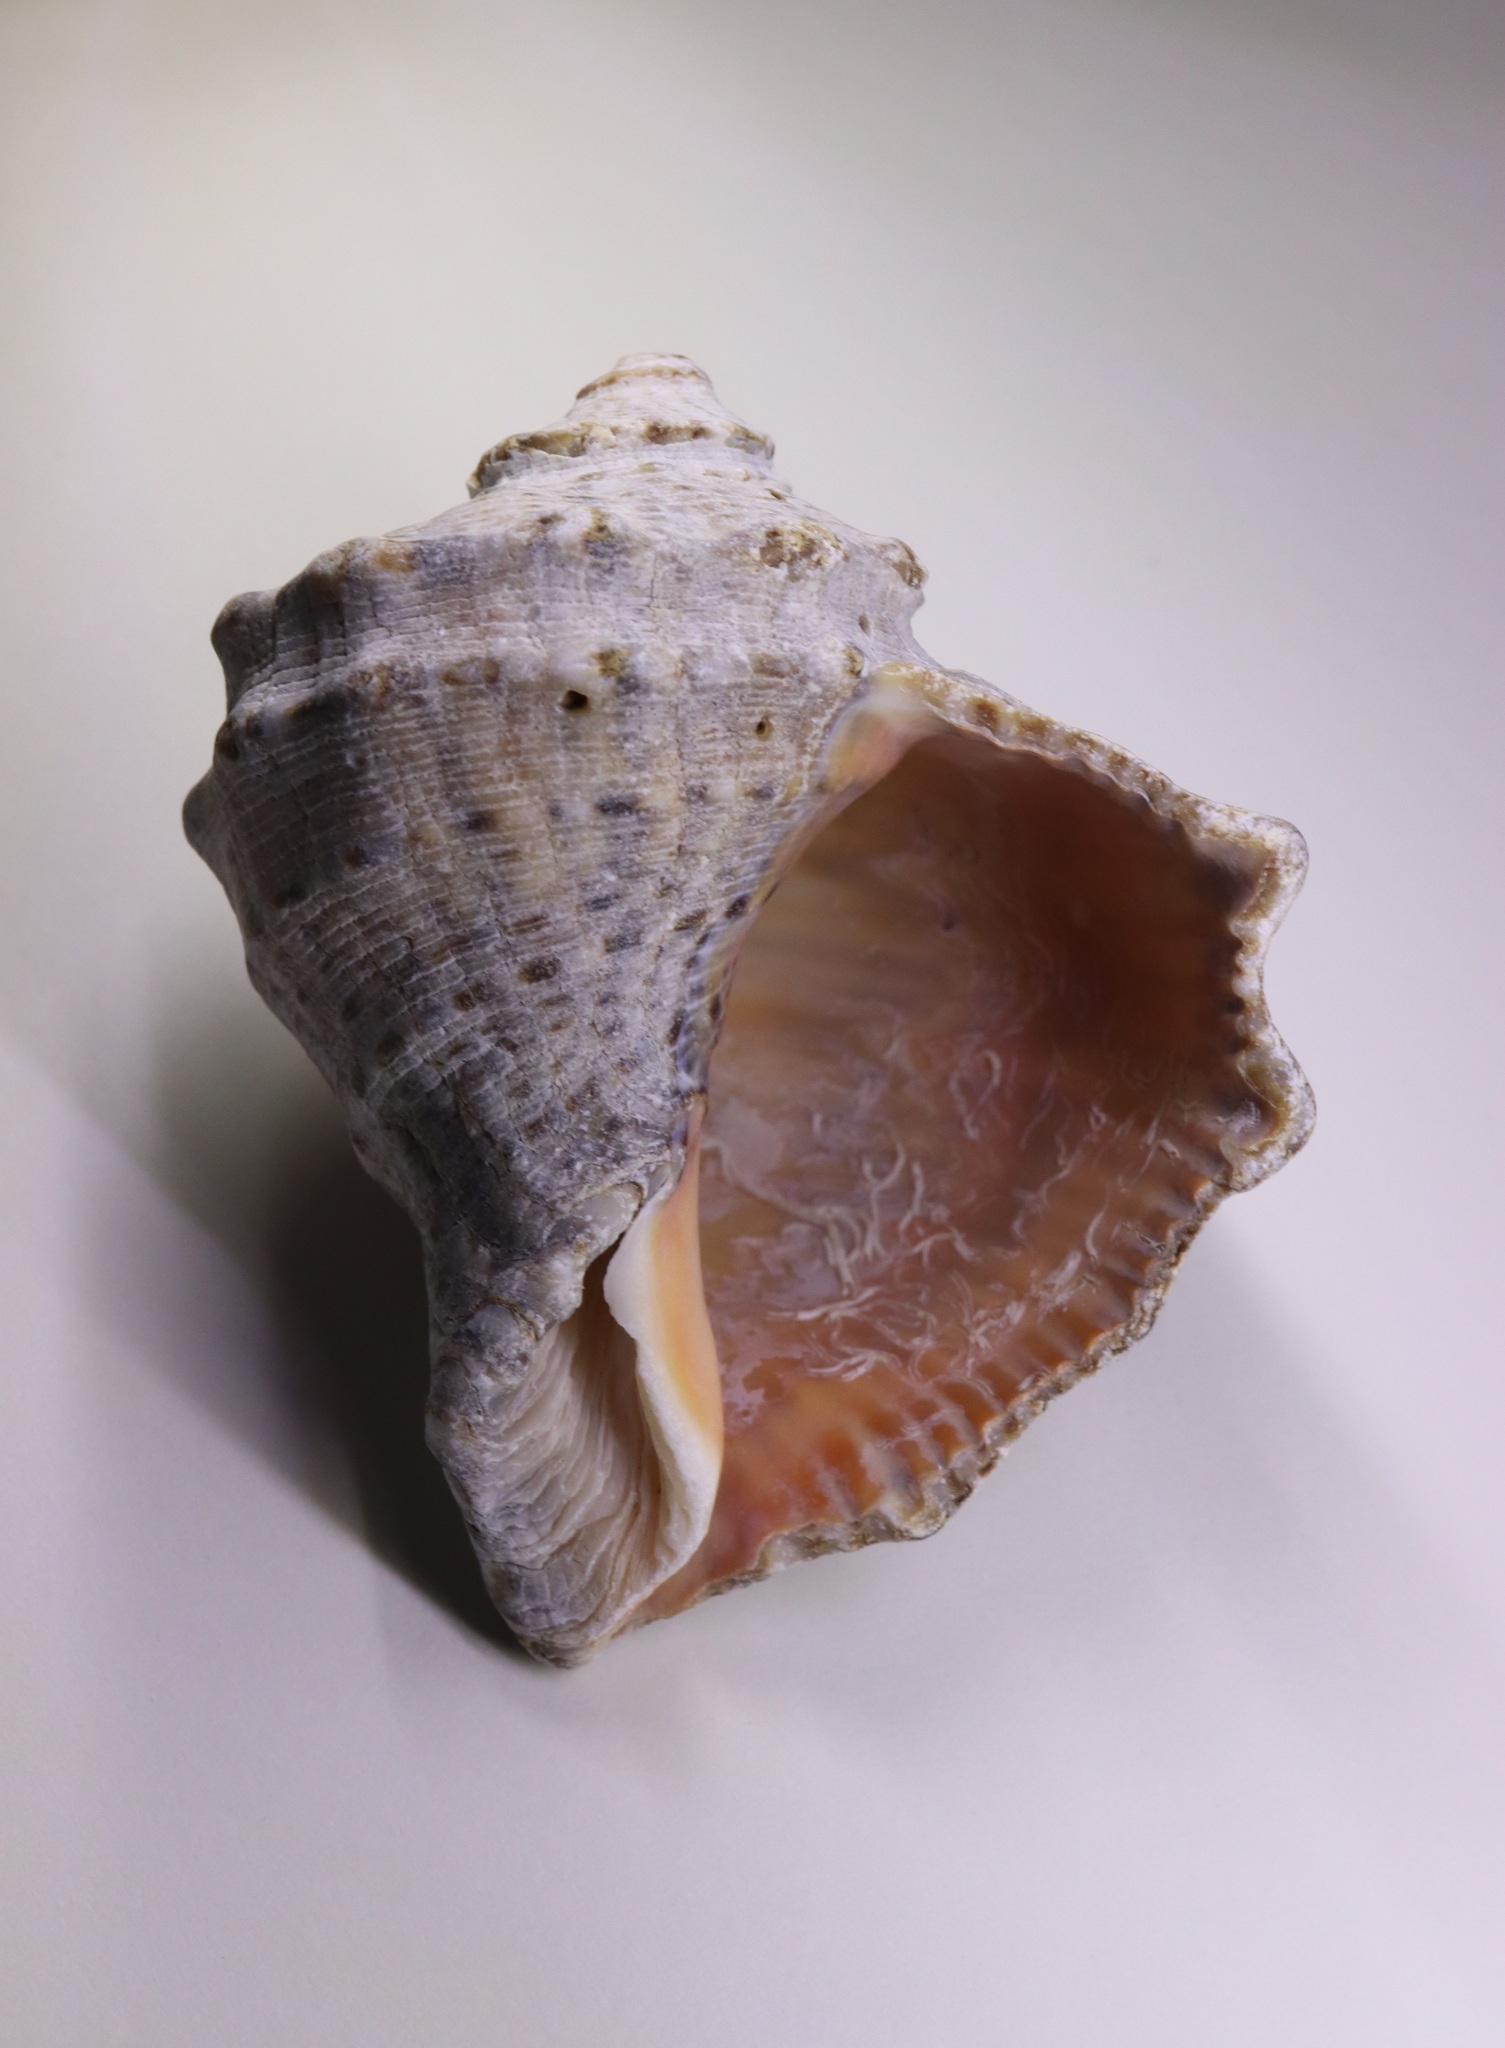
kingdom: Animalia
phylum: Mollusca
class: Gastropoda
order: Neogastropoda
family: Muricidae
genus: Rapana
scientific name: Rapana venosa
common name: Veined rapa whelk
